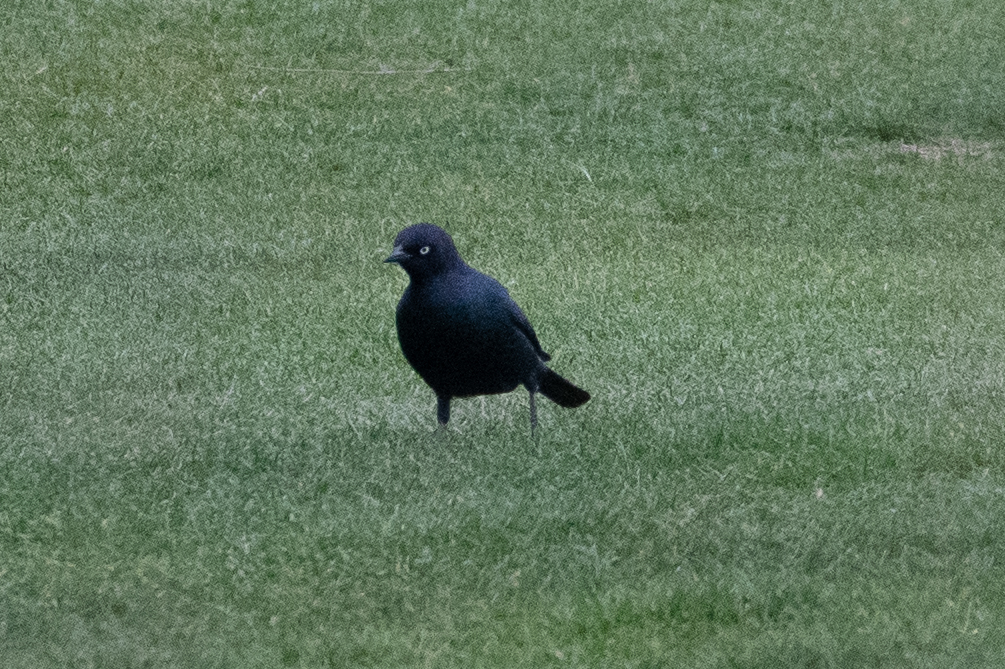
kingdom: Animalia
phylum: Chordata
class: Aves
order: Passeriformes
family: Icteridae
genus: Euphagus
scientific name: Euphagus cyanocephalus
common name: Brewer's blackbird
